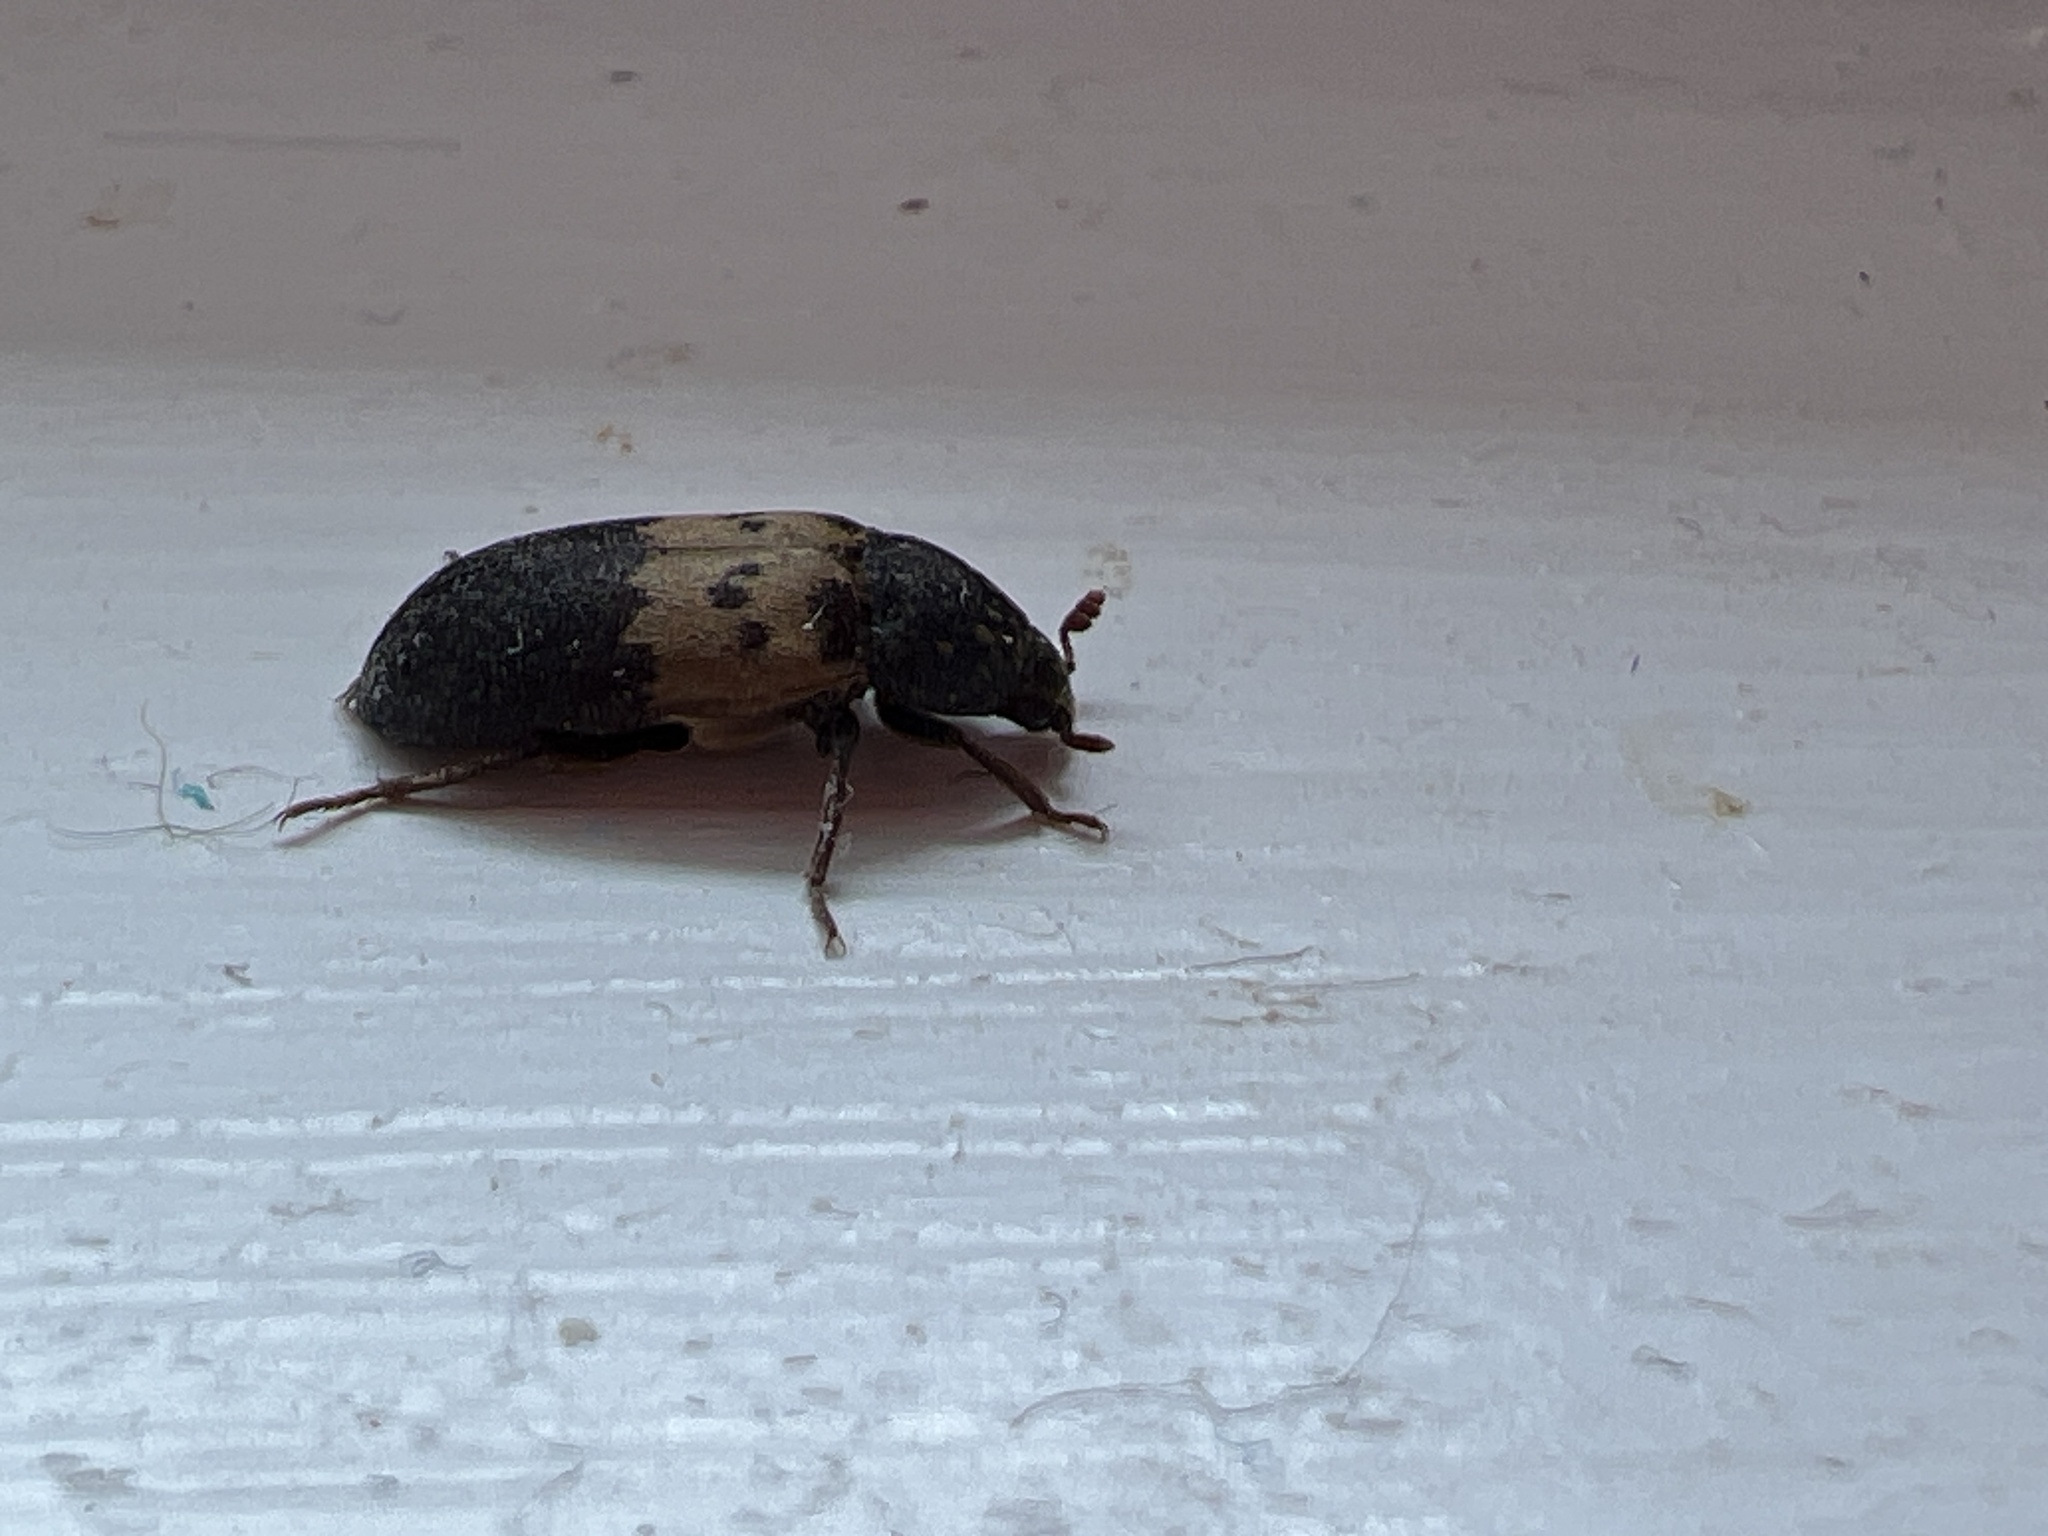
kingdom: Animalia
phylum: Arthropoda
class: Insecta
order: Coleoptera
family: Dermestidae
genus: Dermestes
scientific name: Dermestes lardarius
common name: Larder beetle
